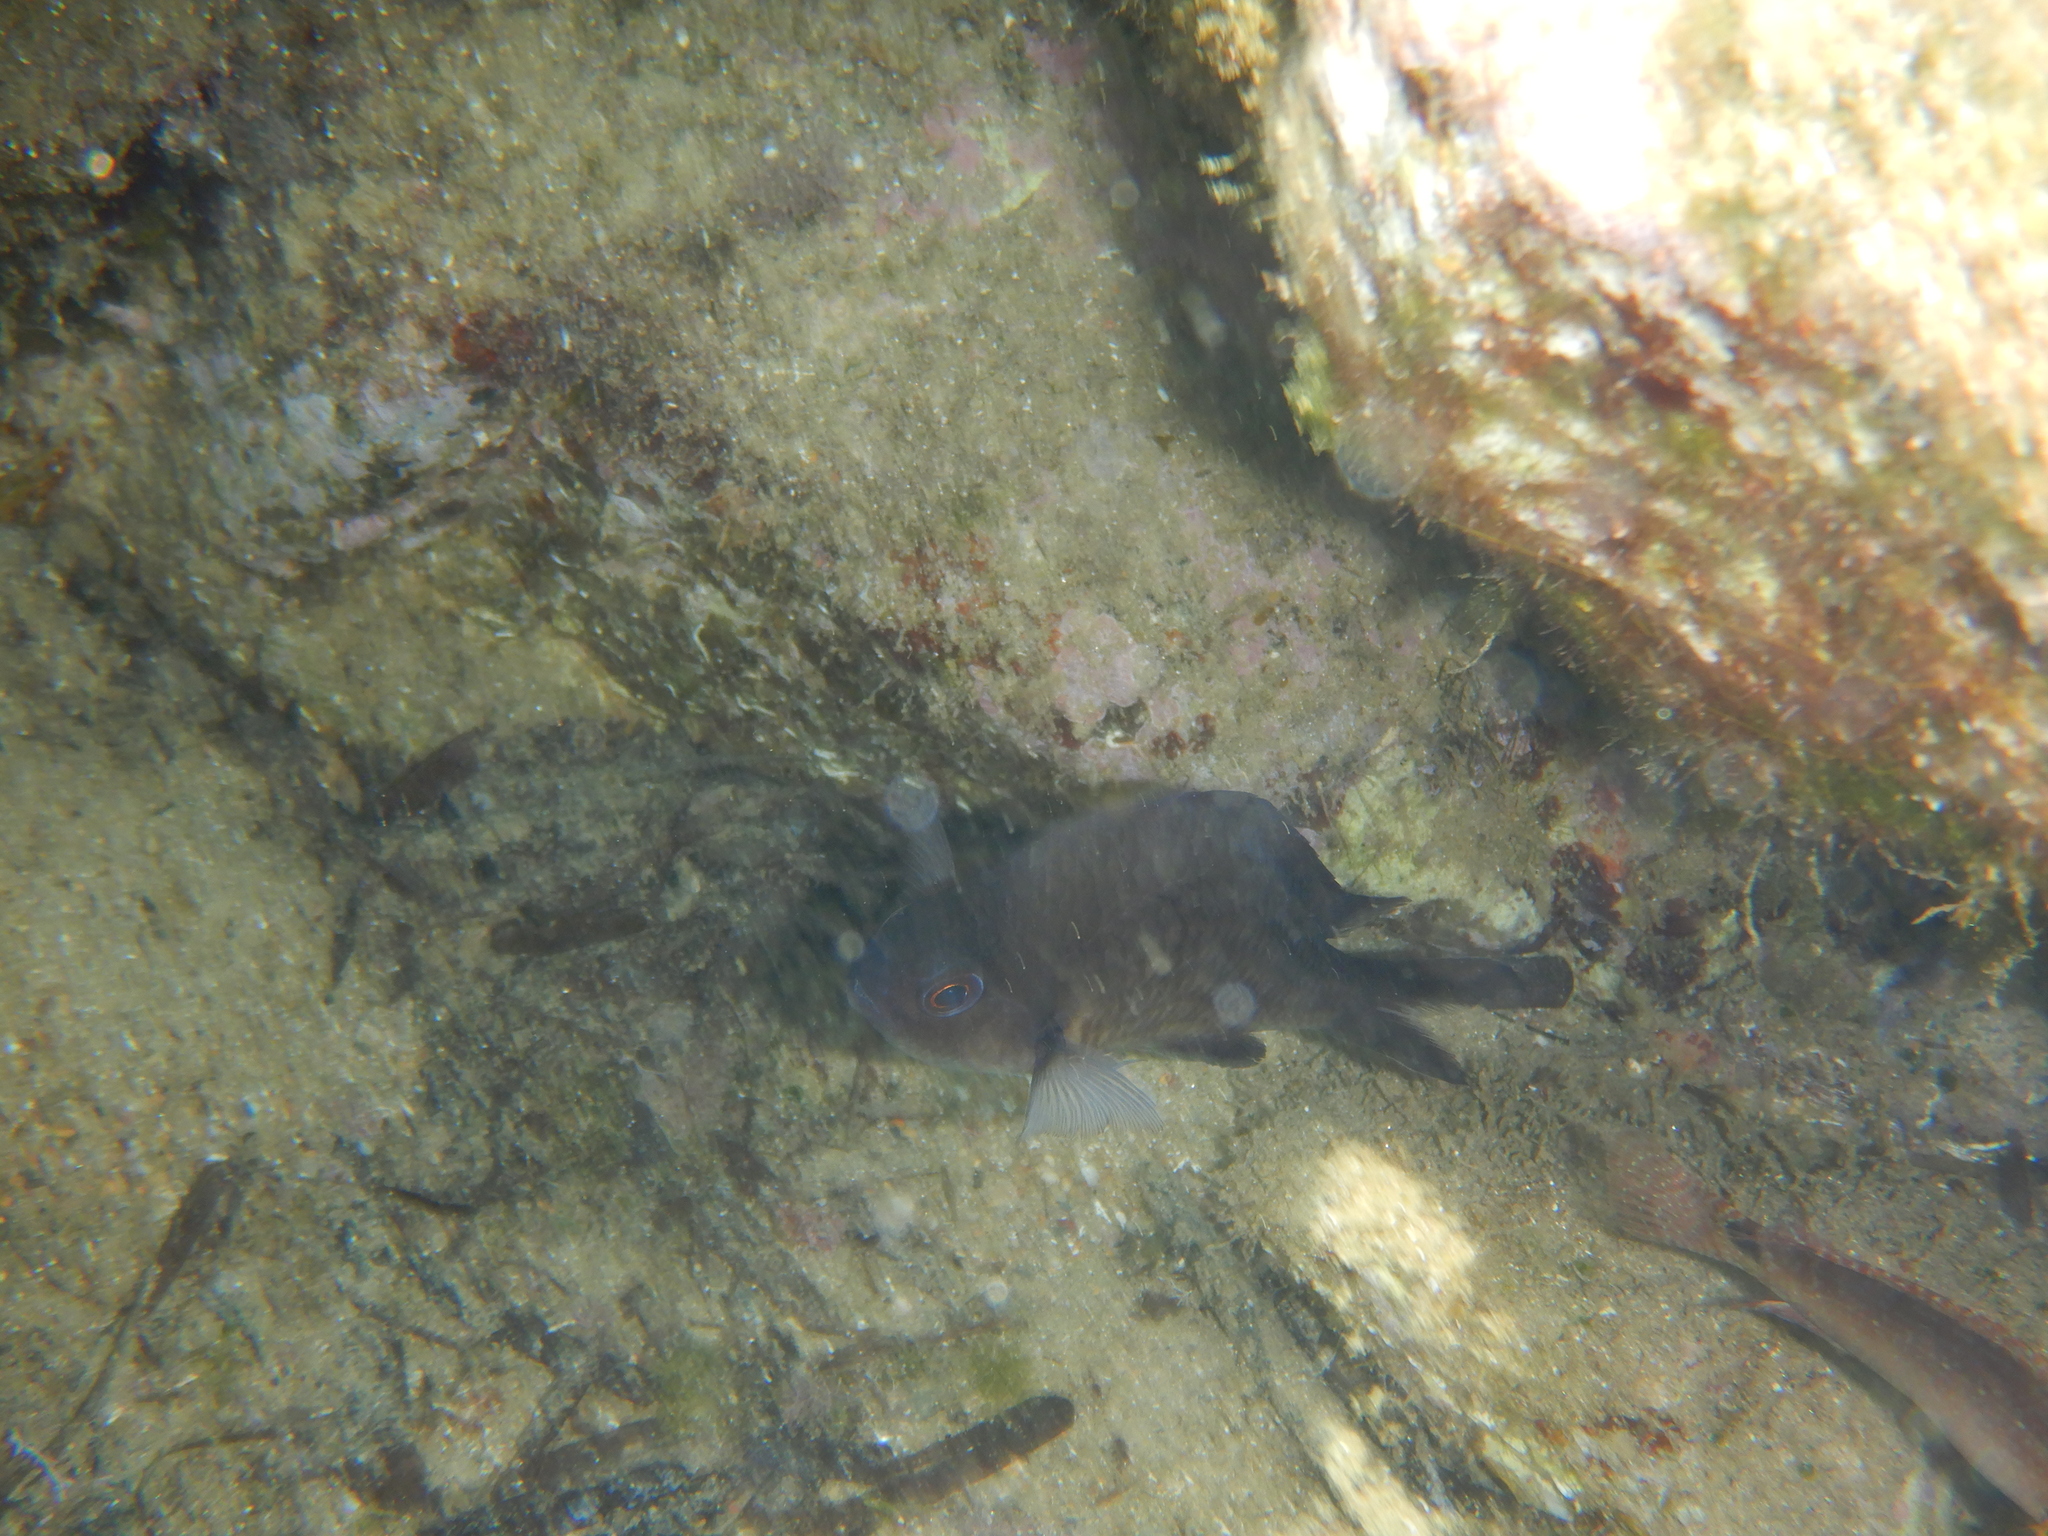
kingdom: Animalia
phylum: Chordata
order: Perciformes
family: Pomacentridae
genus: Chromis
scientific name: Chromis chromis
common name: Damselfish
